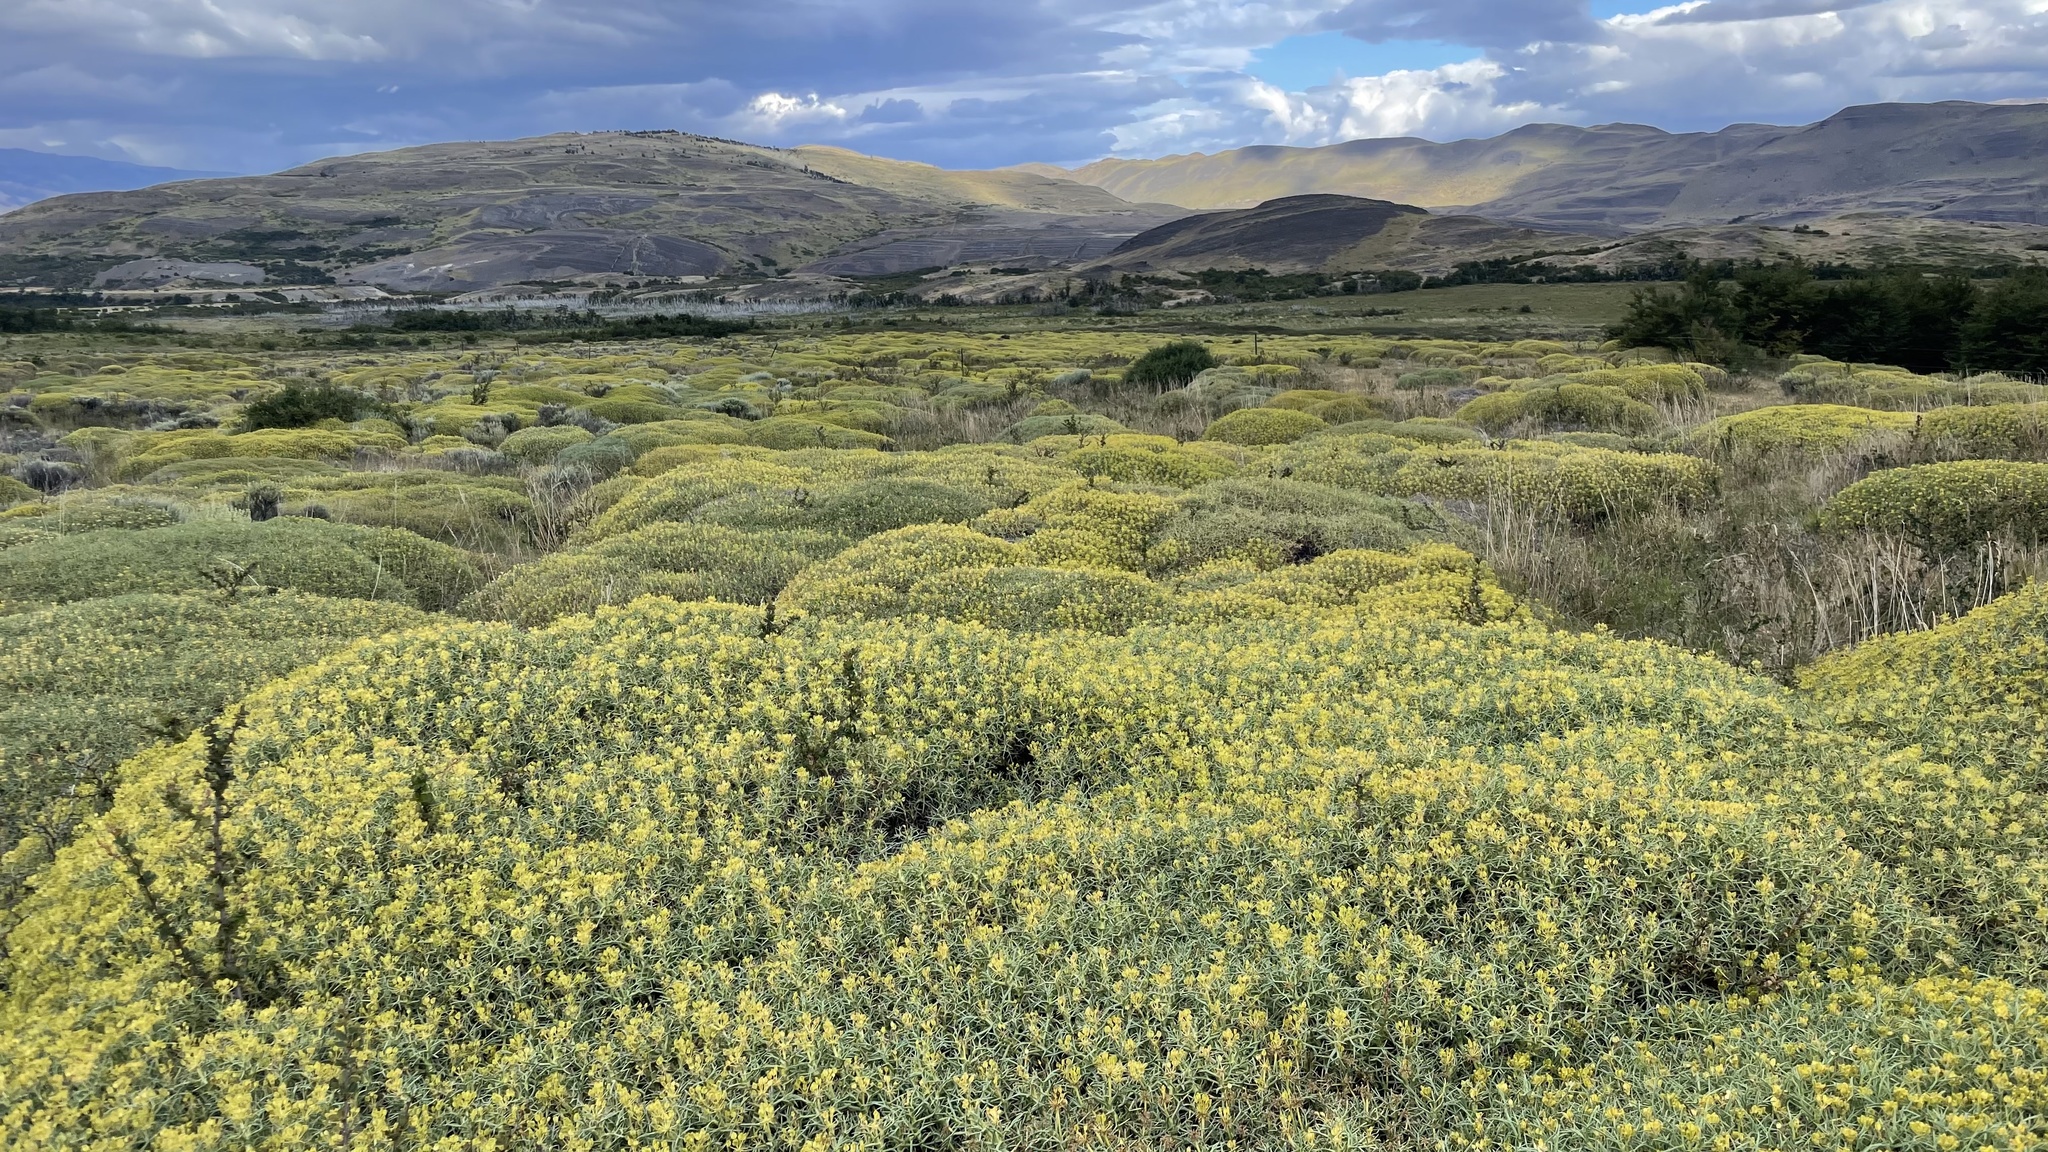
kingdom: Plantae
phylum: Tracheophyta
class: Magnoliopsida
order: Apiales
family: Apiaceae
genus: Azorella
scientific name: Azorella prolifera
